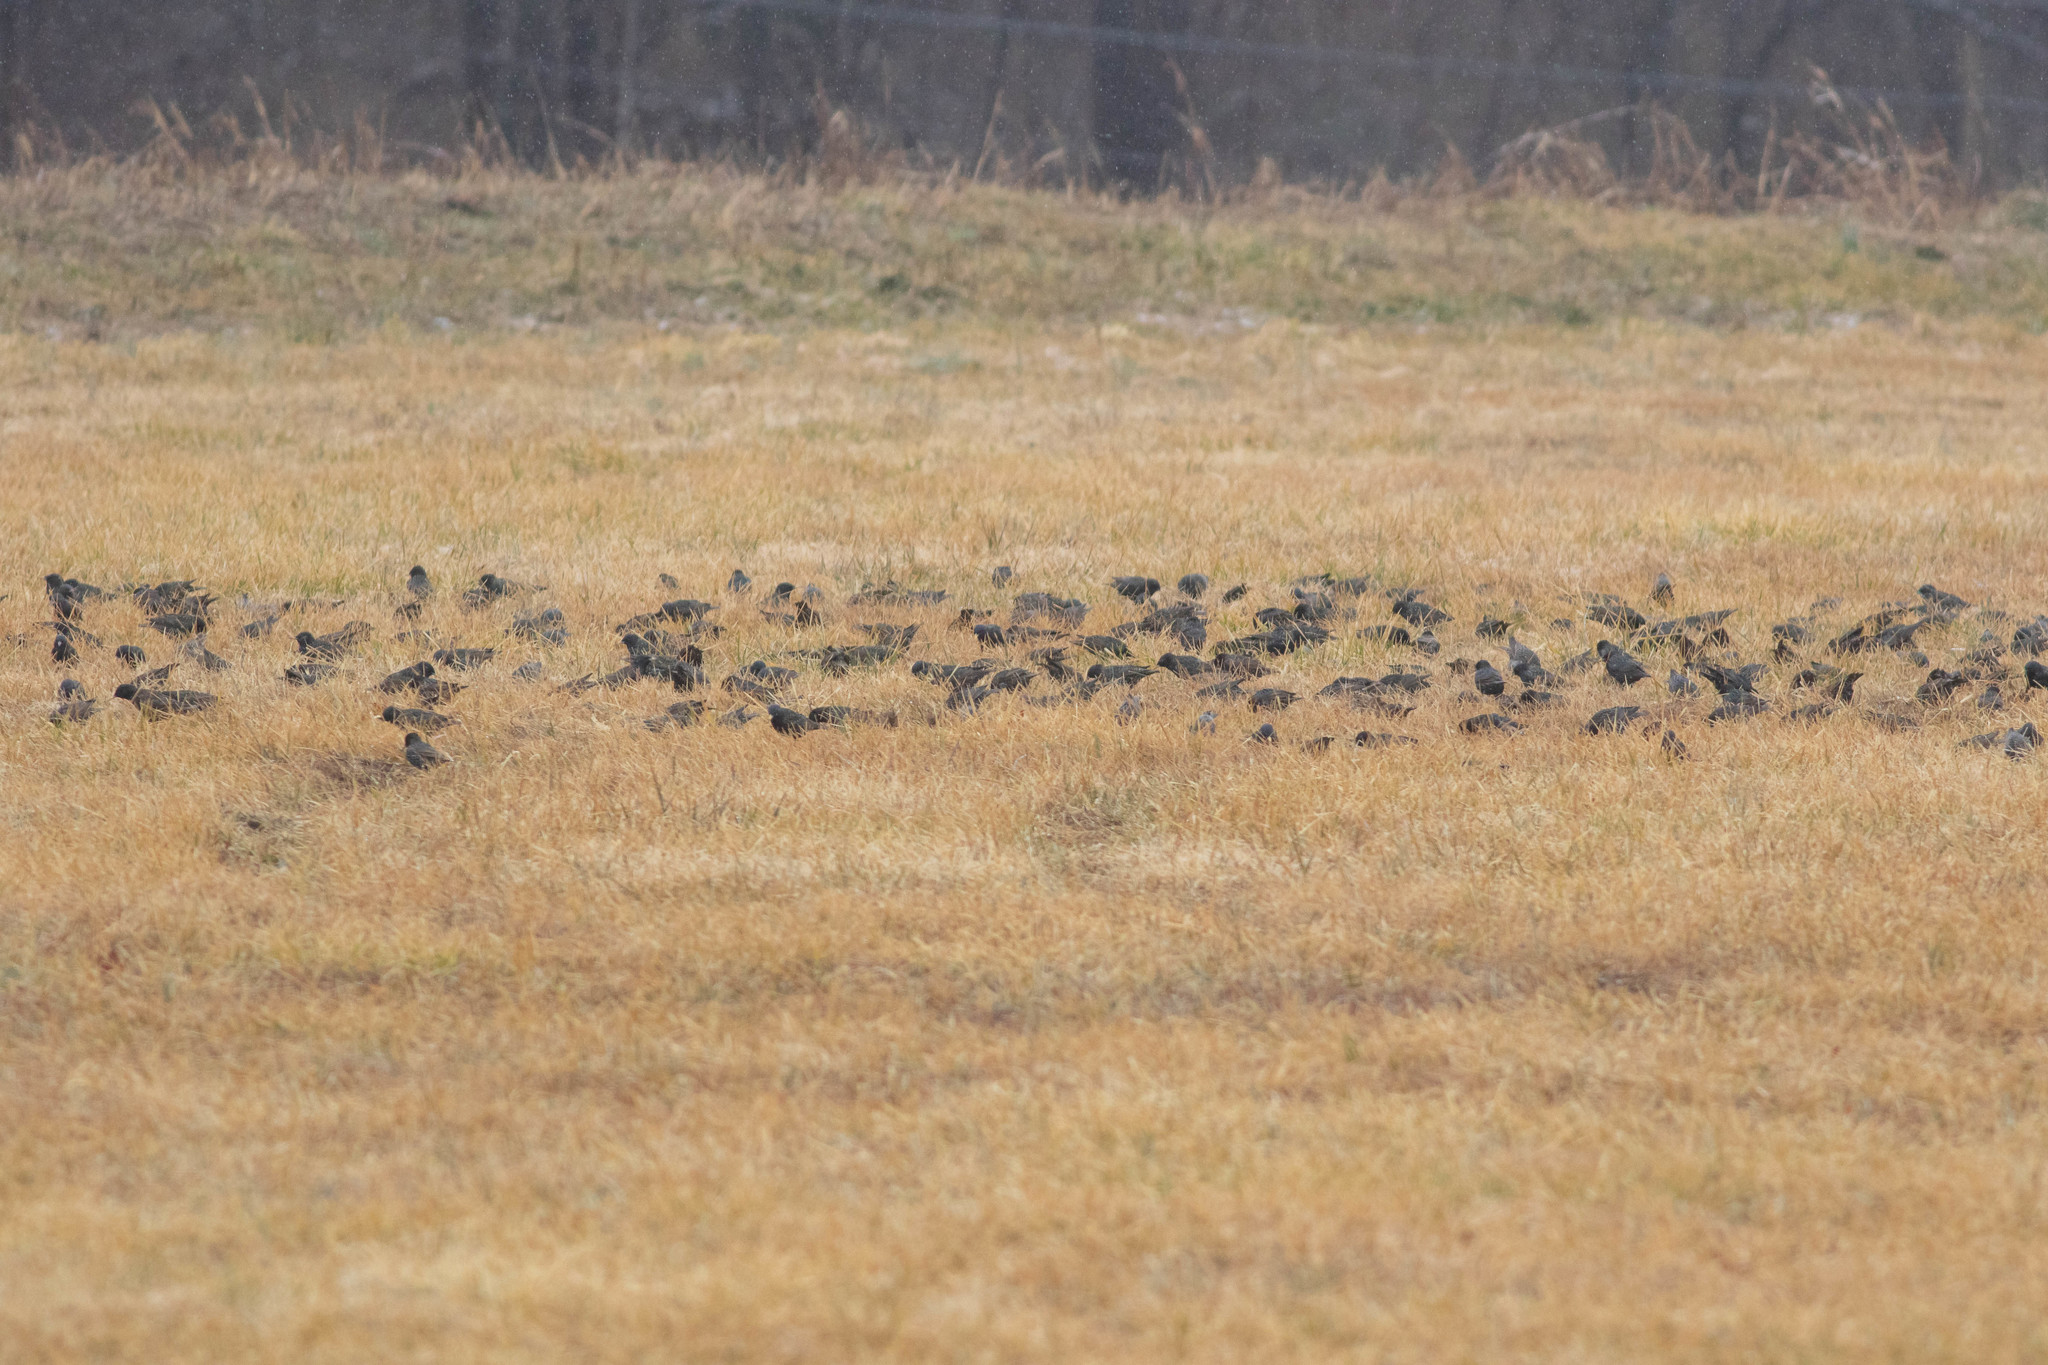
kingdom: Animalia
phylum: Chordata
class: Aves
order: Passeriformes
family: Sturnidae
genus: Sturnus
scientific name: Sturnus vulgaris
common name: Common starling
